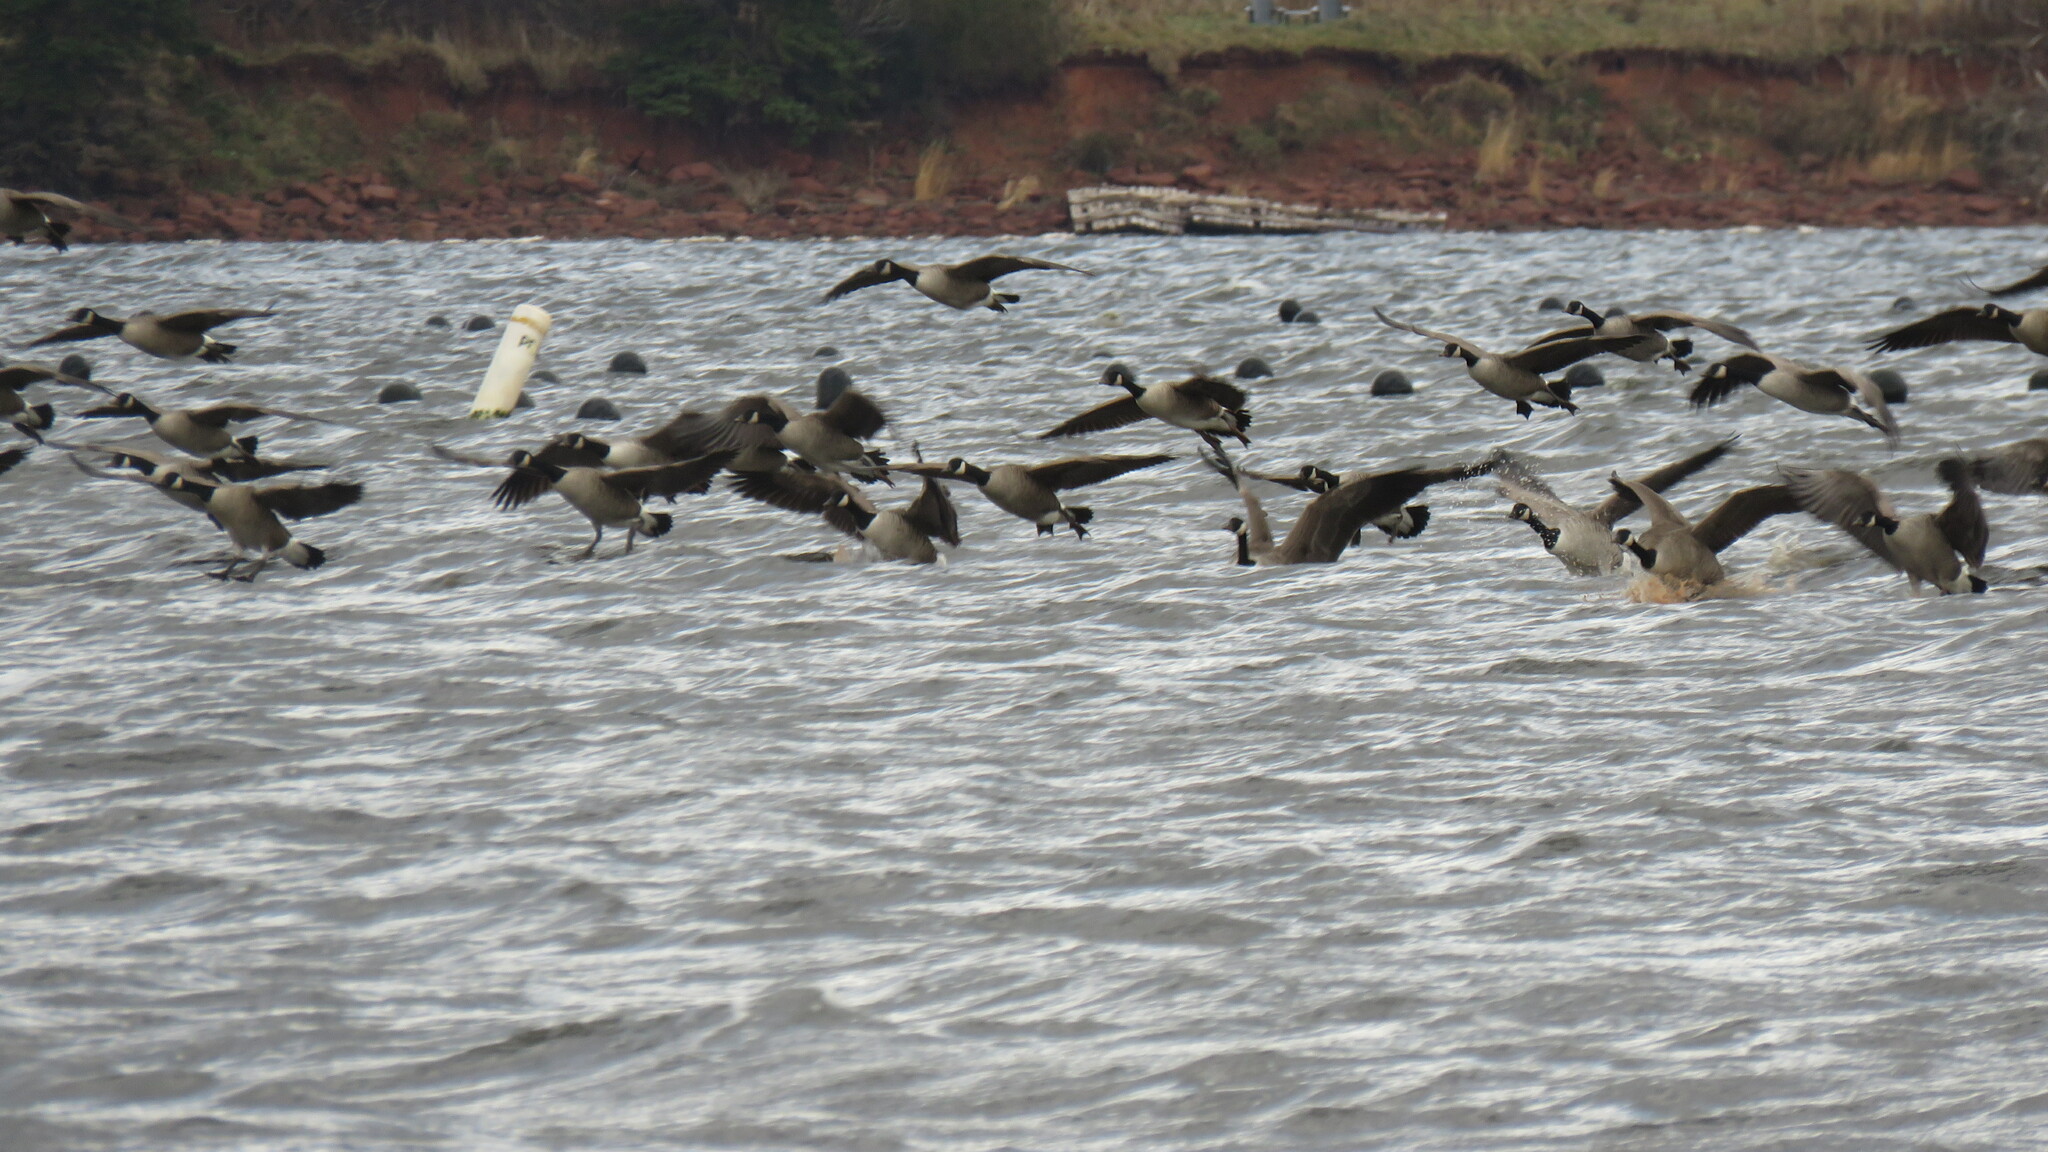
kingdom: Animalia
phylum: Chordata
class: Aves
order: Anseriformes
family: Anatidae
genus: Branta
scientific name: Branta canadensis
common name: Canada goose
